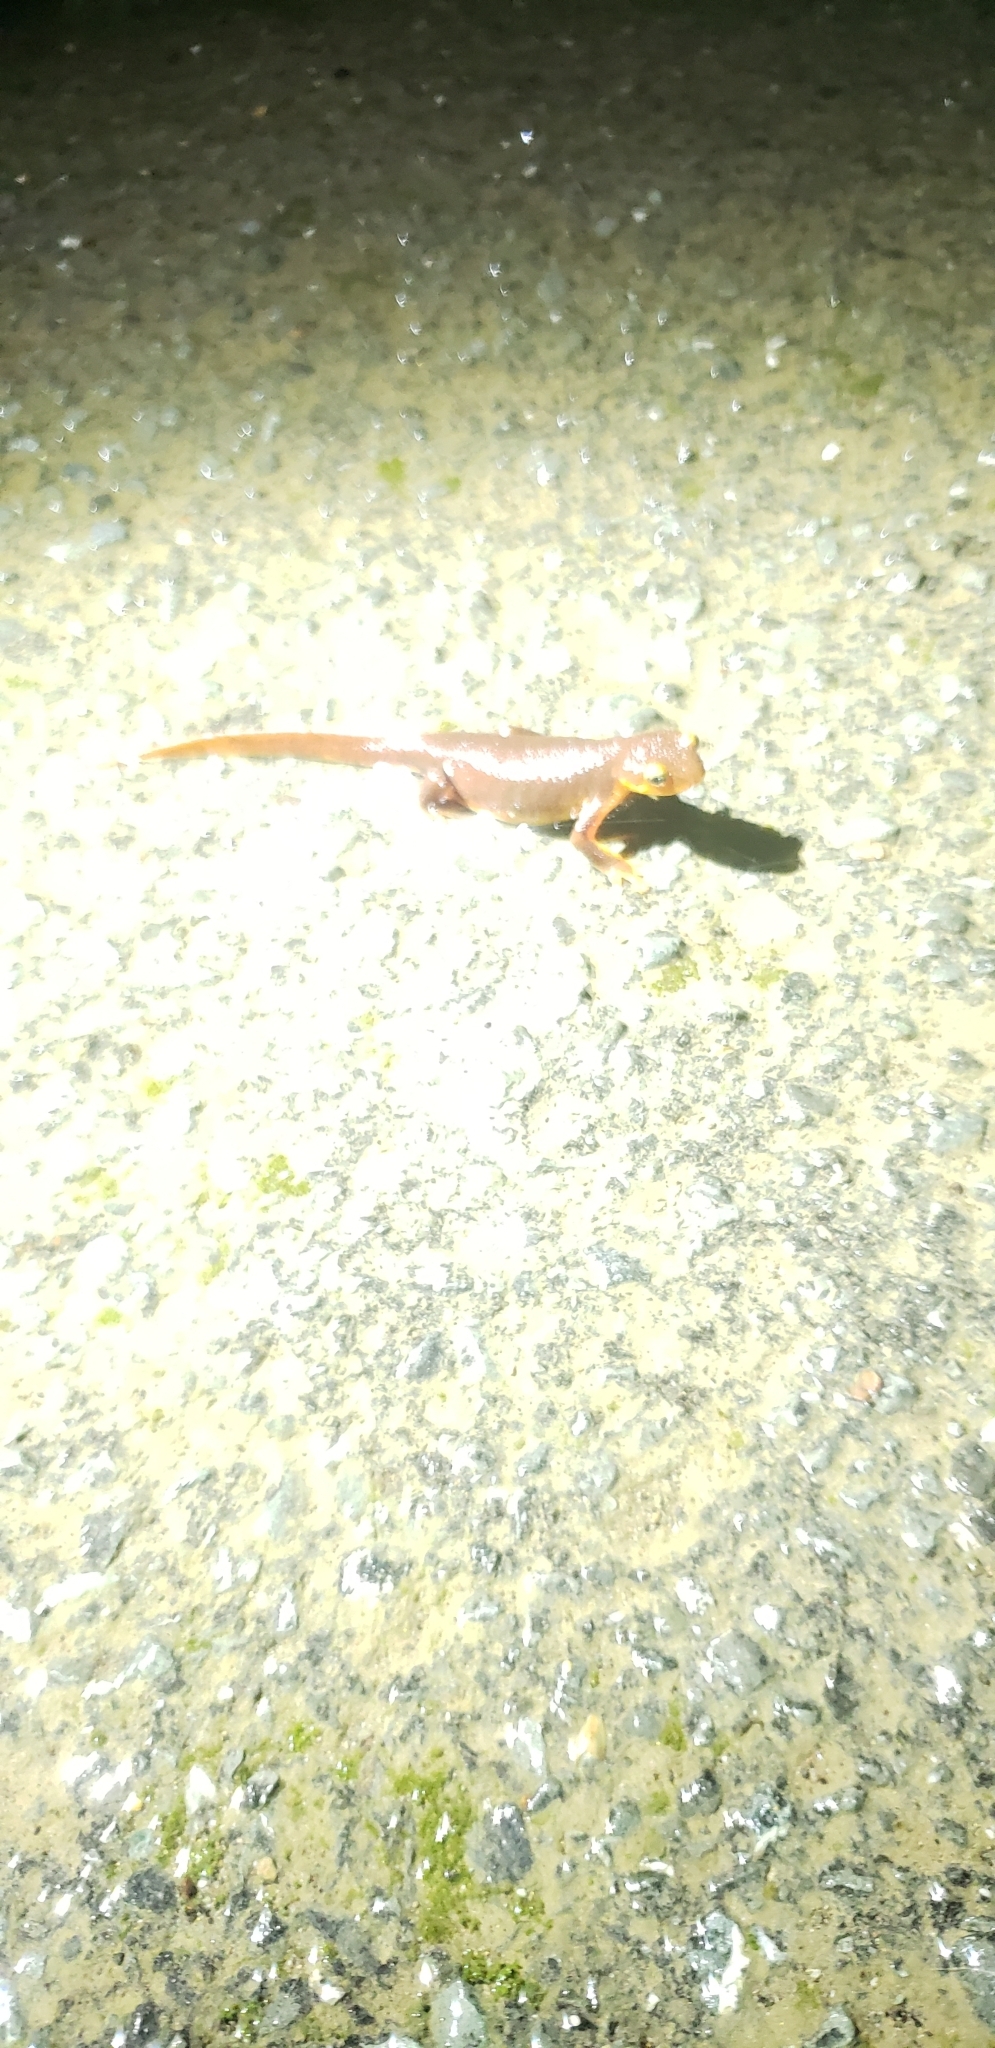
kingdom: Animalia
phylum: Chordata
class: Amphibia
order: Caudata
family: Salamandridae
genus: Taricha
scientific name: Taricha torosa
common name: California newt
